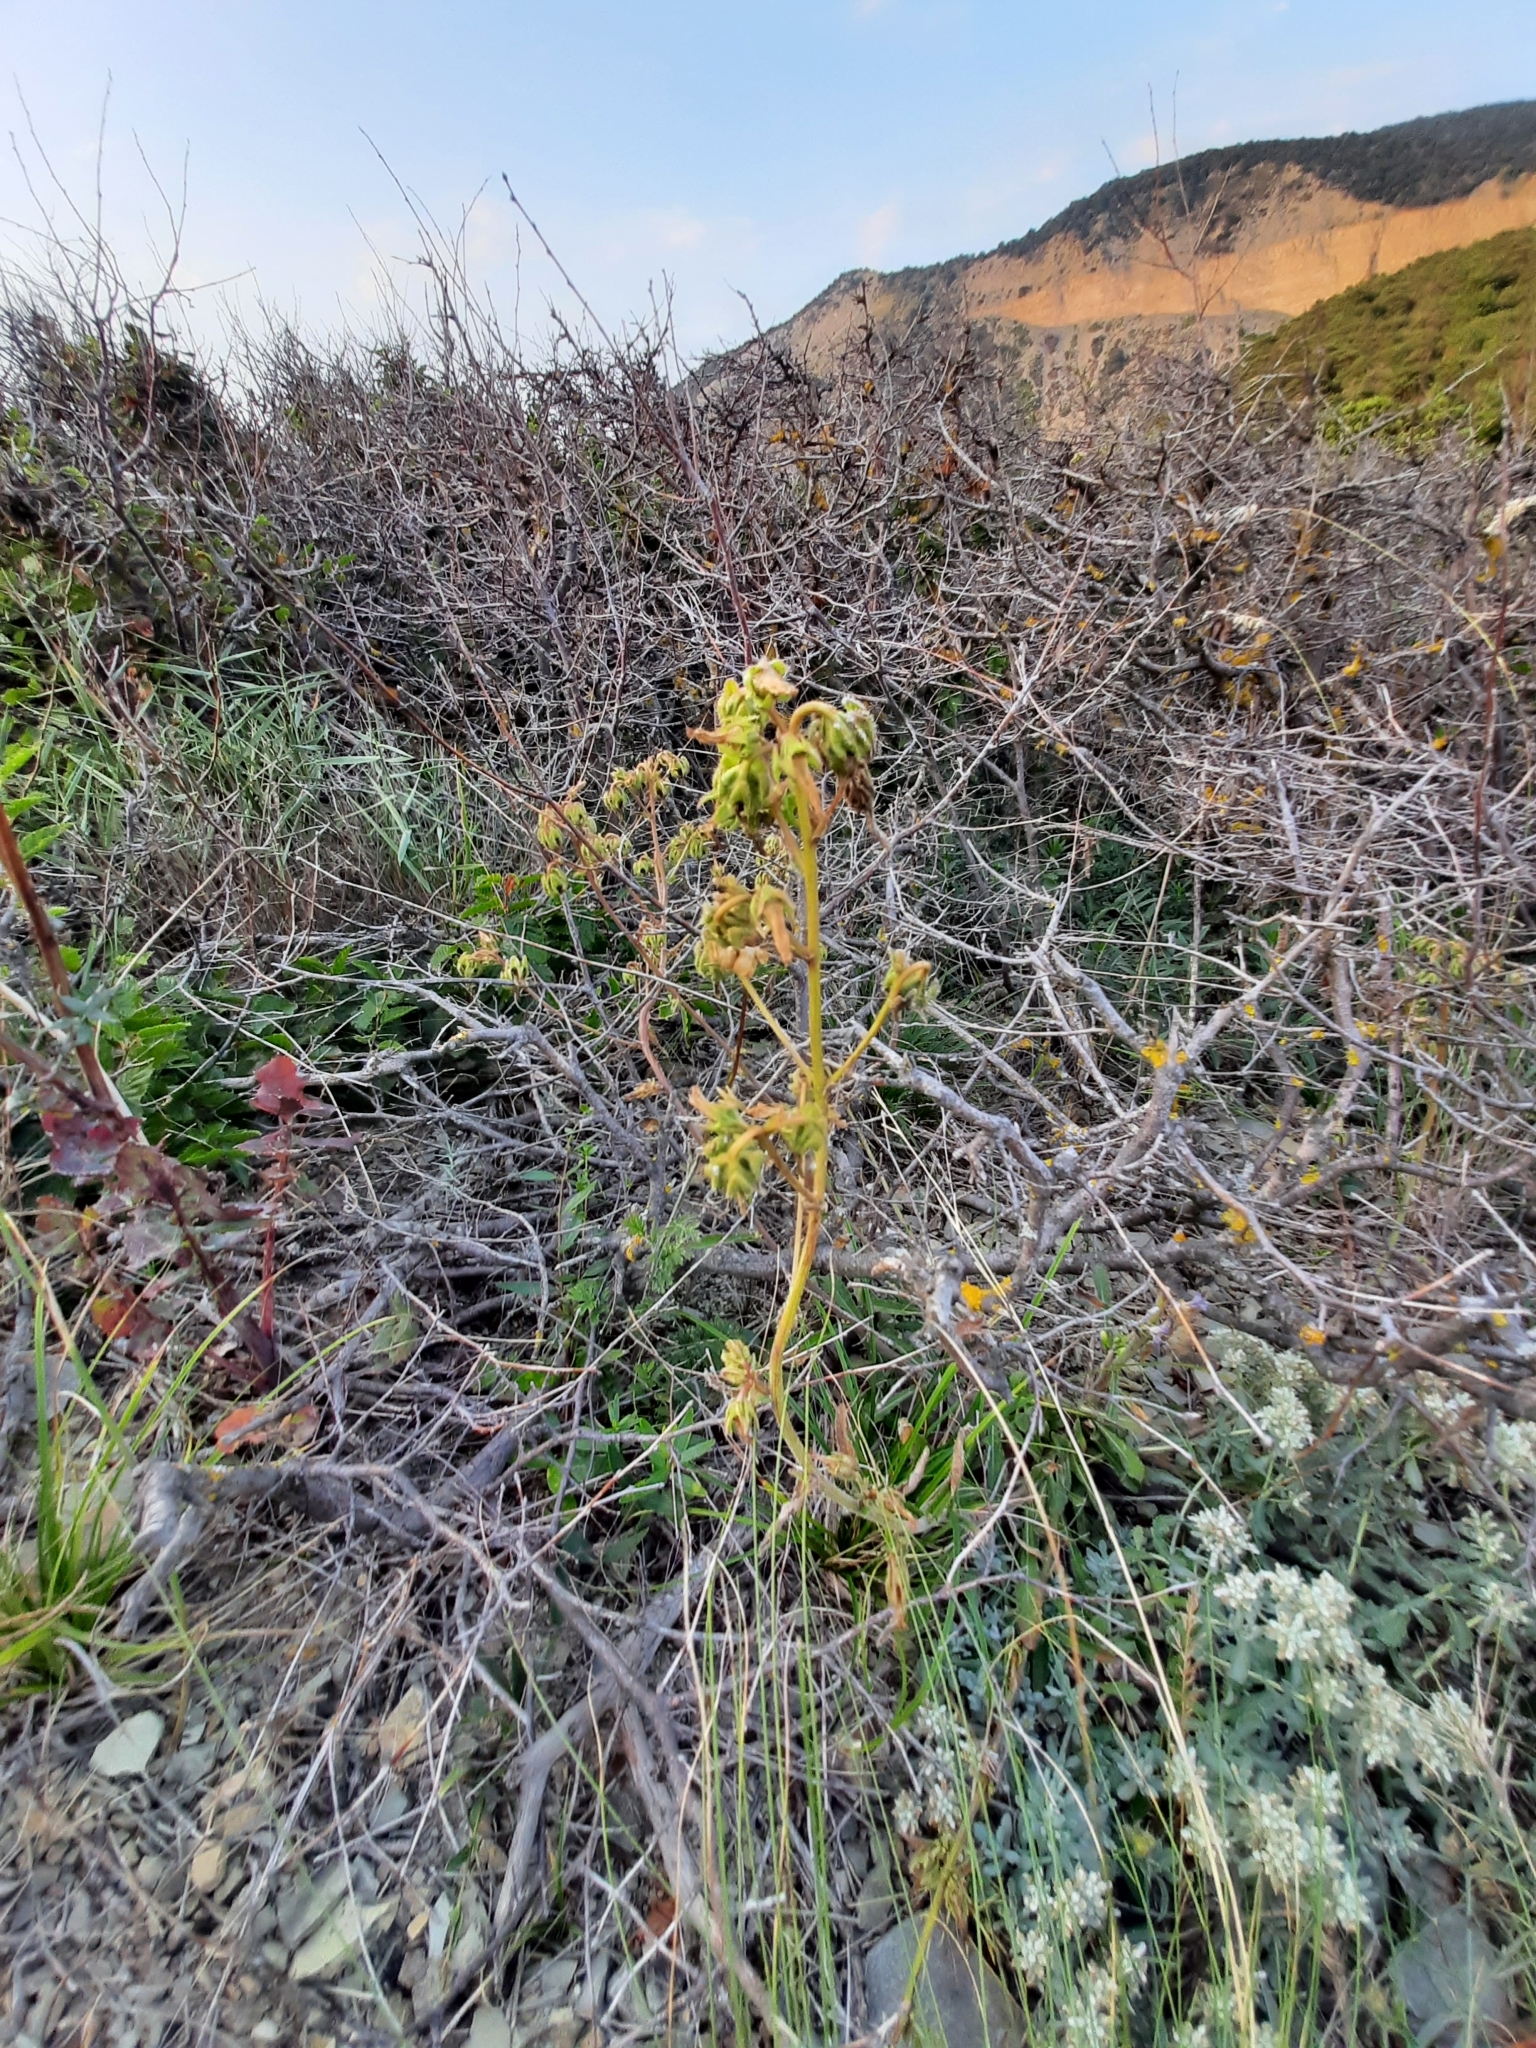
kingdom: Plantae
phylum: Tracheophyta
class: Magnoliopsida
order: Asterales
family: Campanulaceae
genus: Campanula
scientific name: Campanula komarovii
